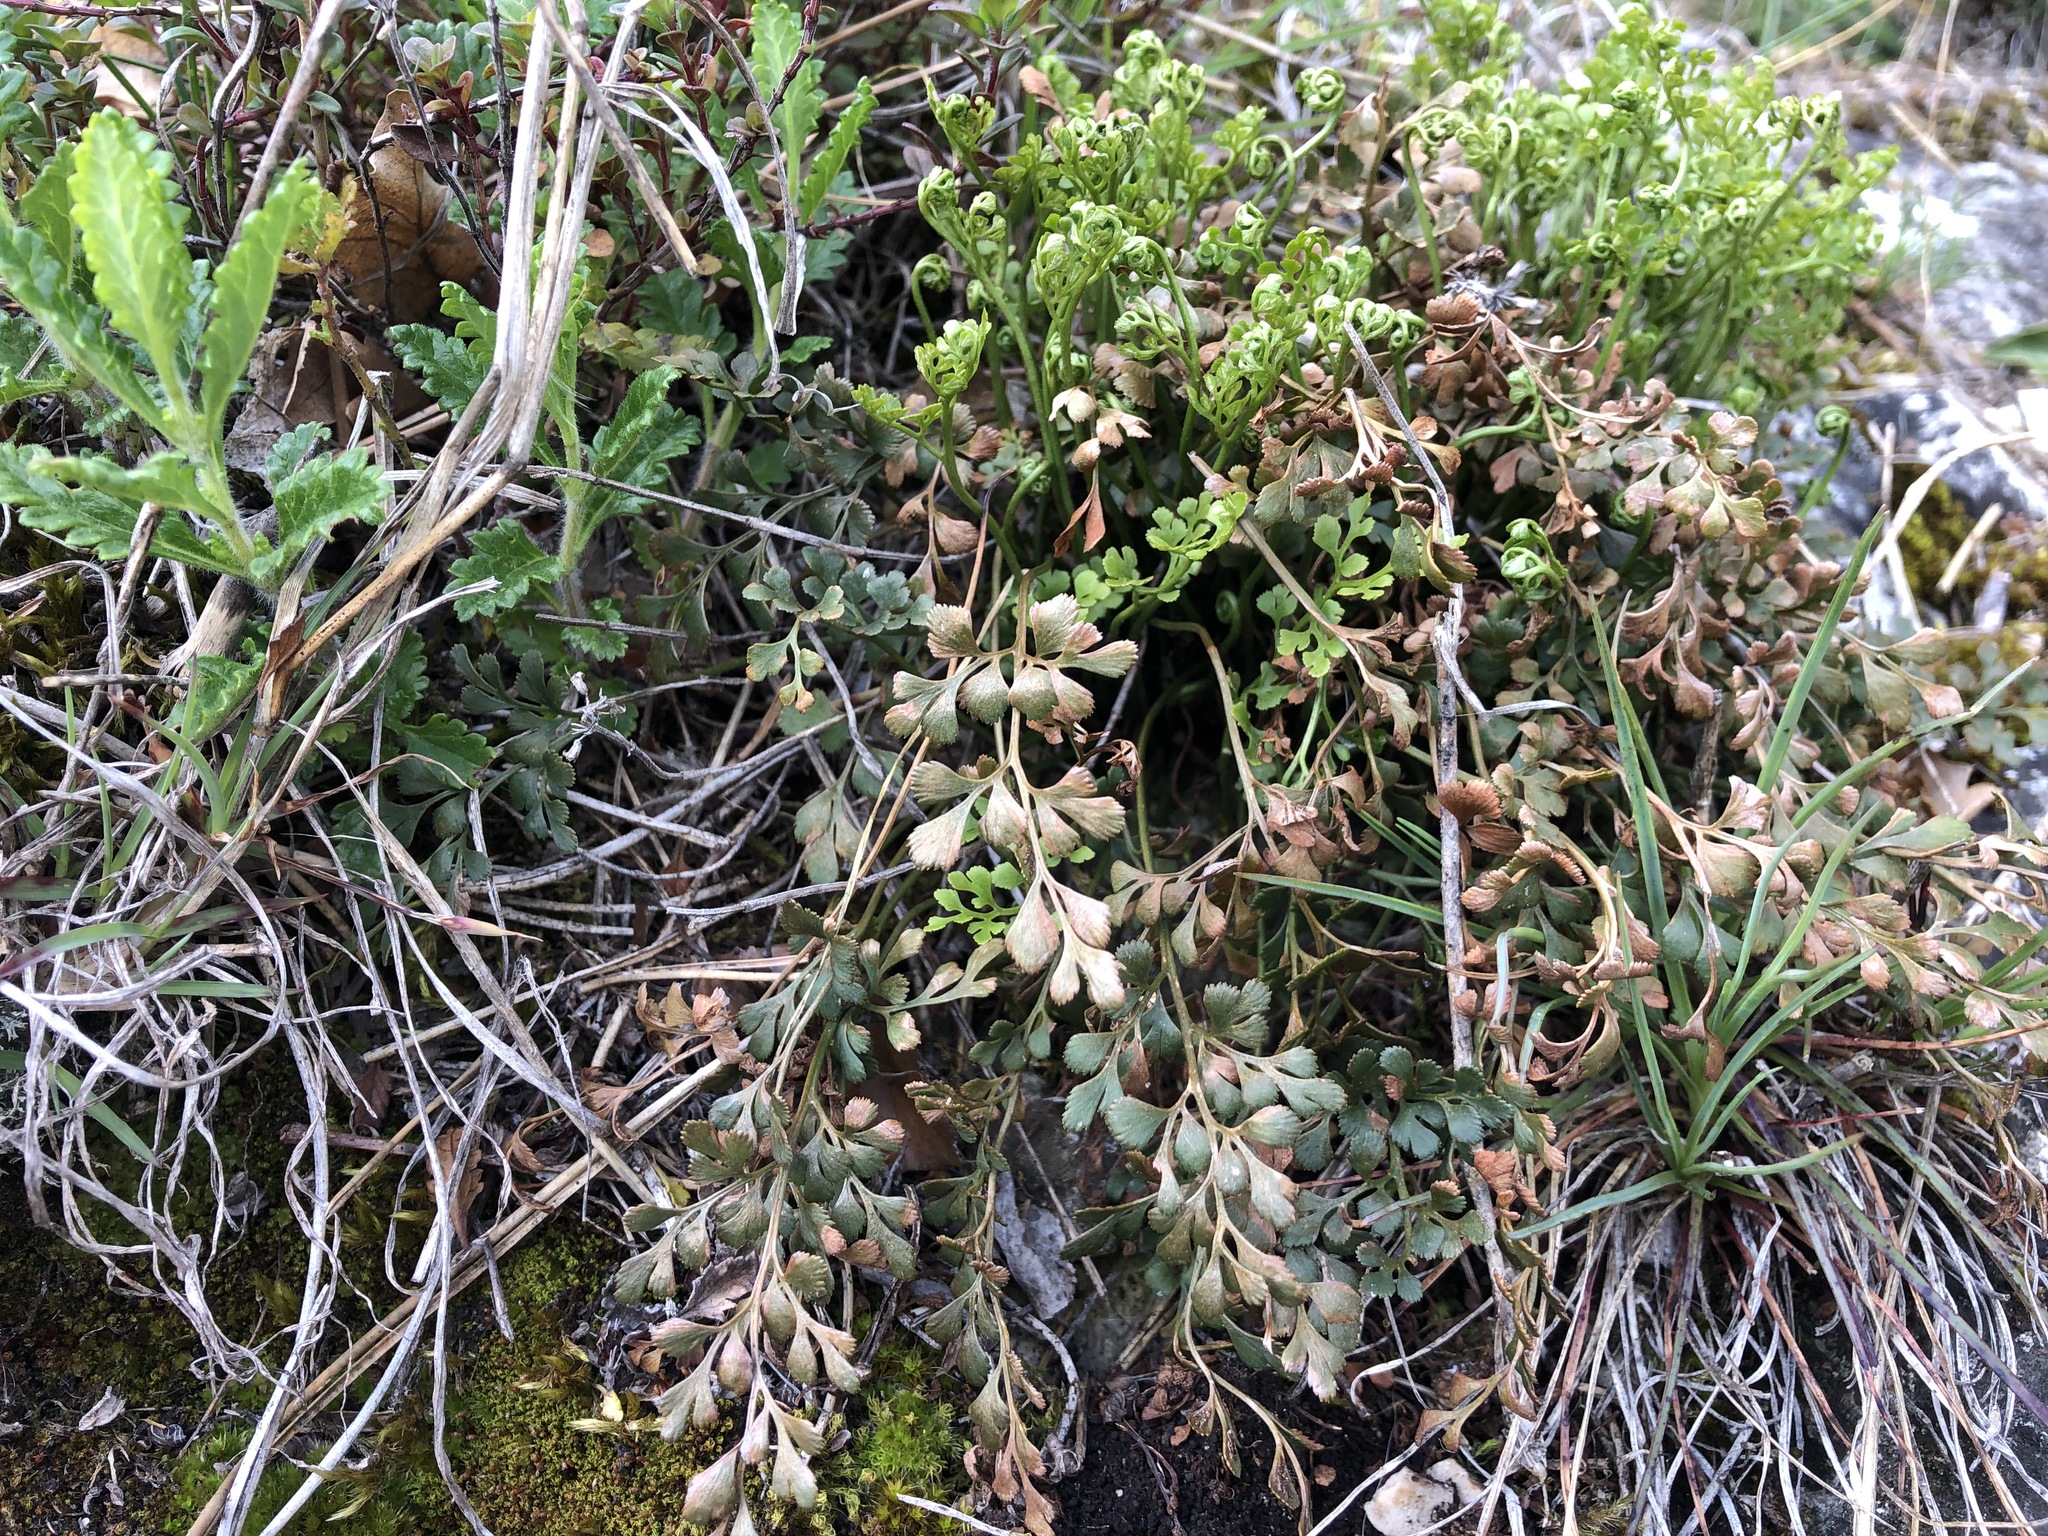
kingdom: Plantae
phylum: Tracheophyta
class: Polypodiopsida
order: Polypodiales
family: Aspleniaceae
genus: Asplenium
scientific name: Asplenium ruta-muraria
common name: Wall-rue
